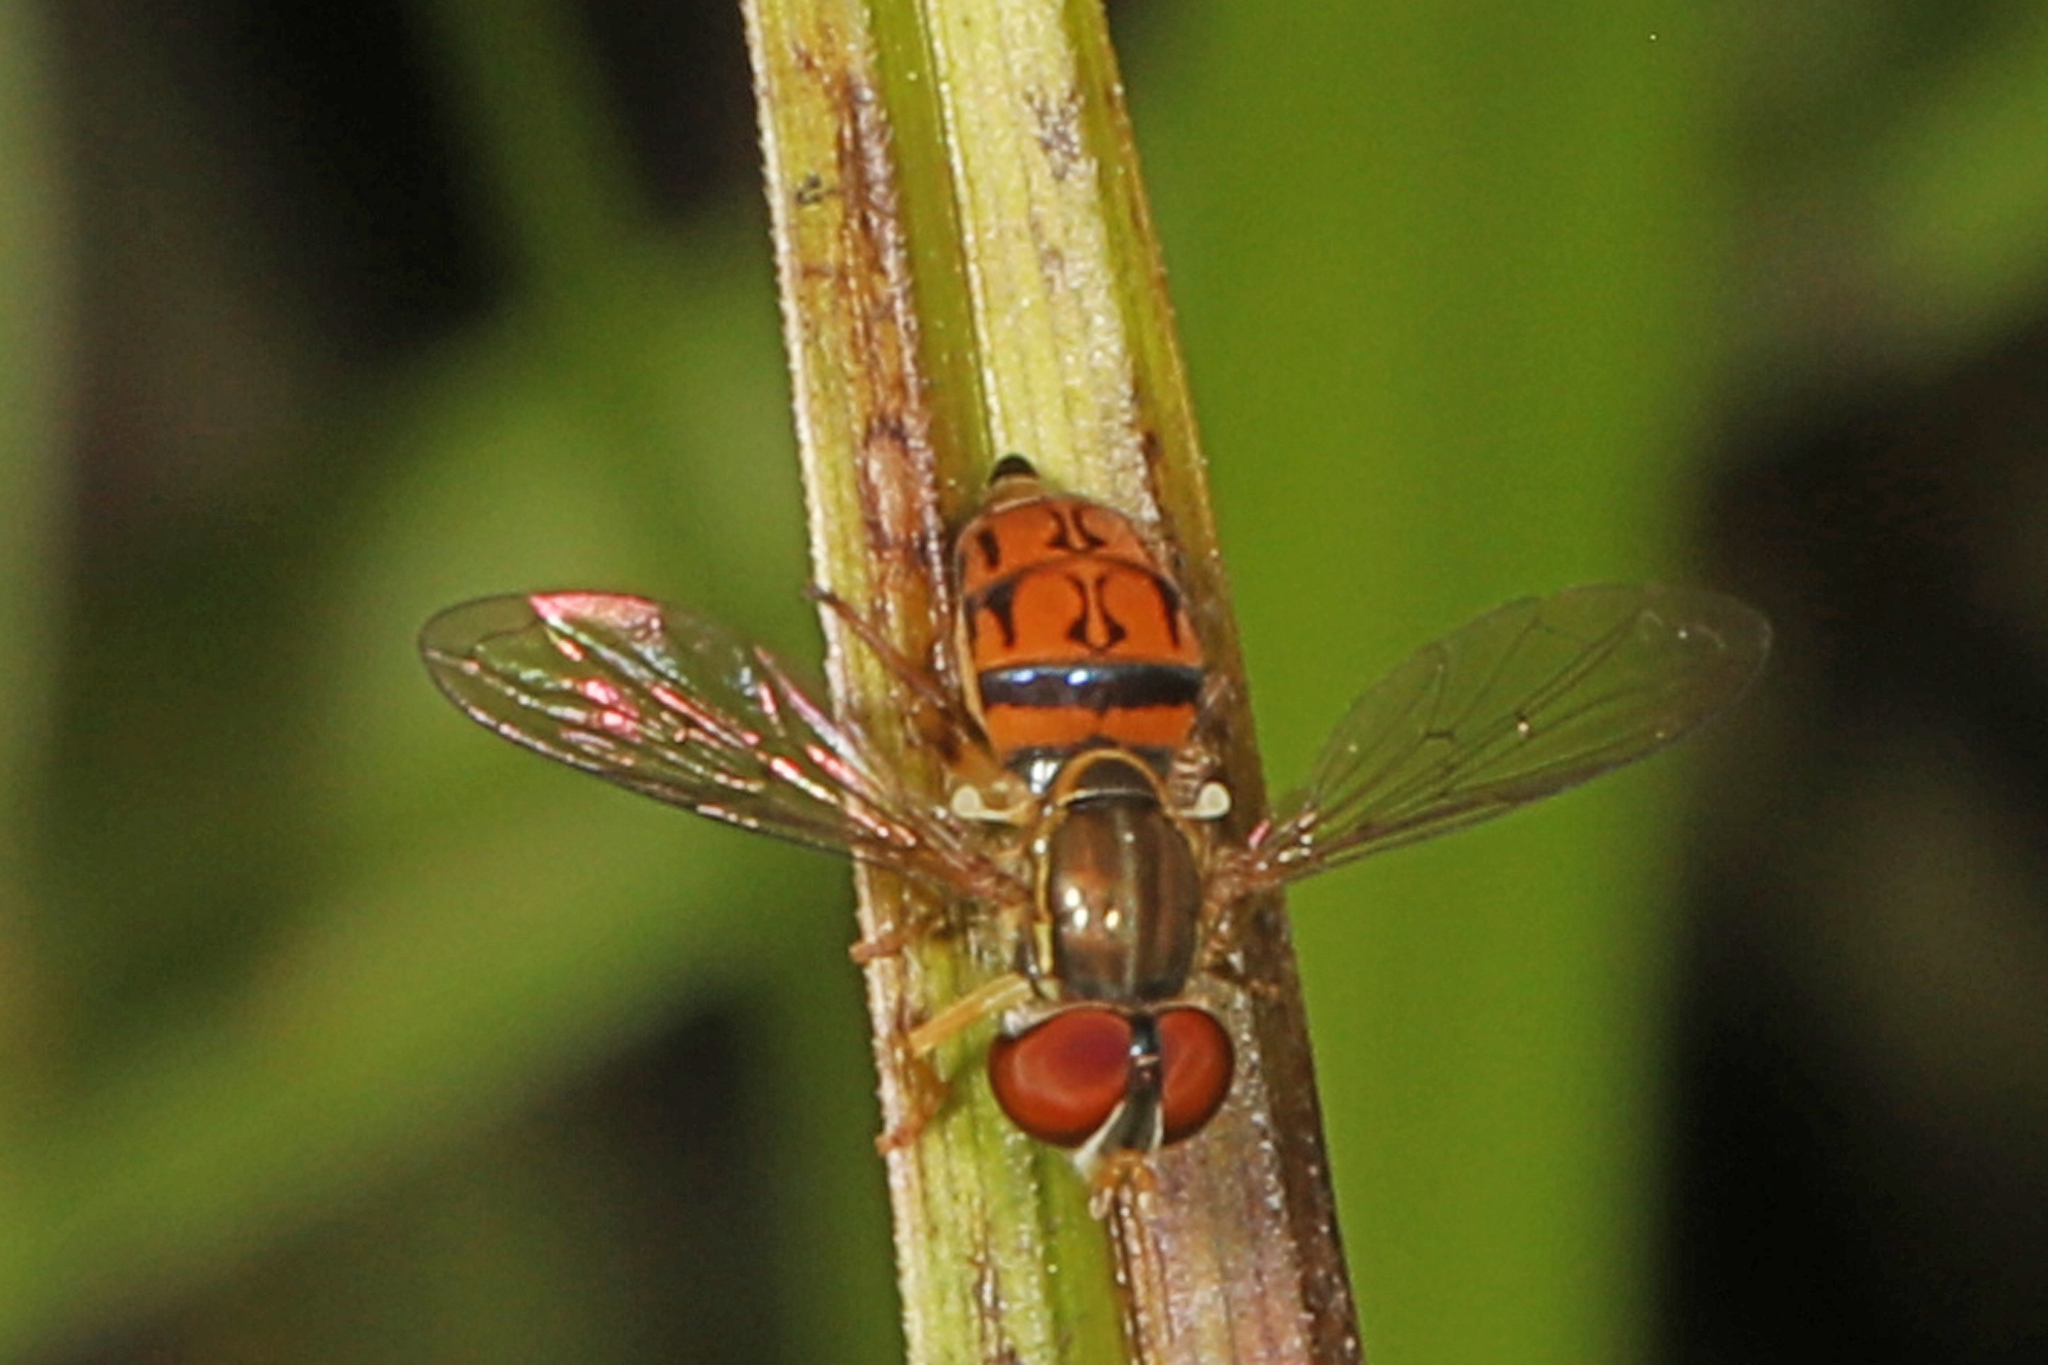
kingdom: Animalia
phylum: Arthropoda
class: Insecta
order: Diptera
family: Syrphidae
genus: Toxomerus
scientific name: Toxomerus boscii
